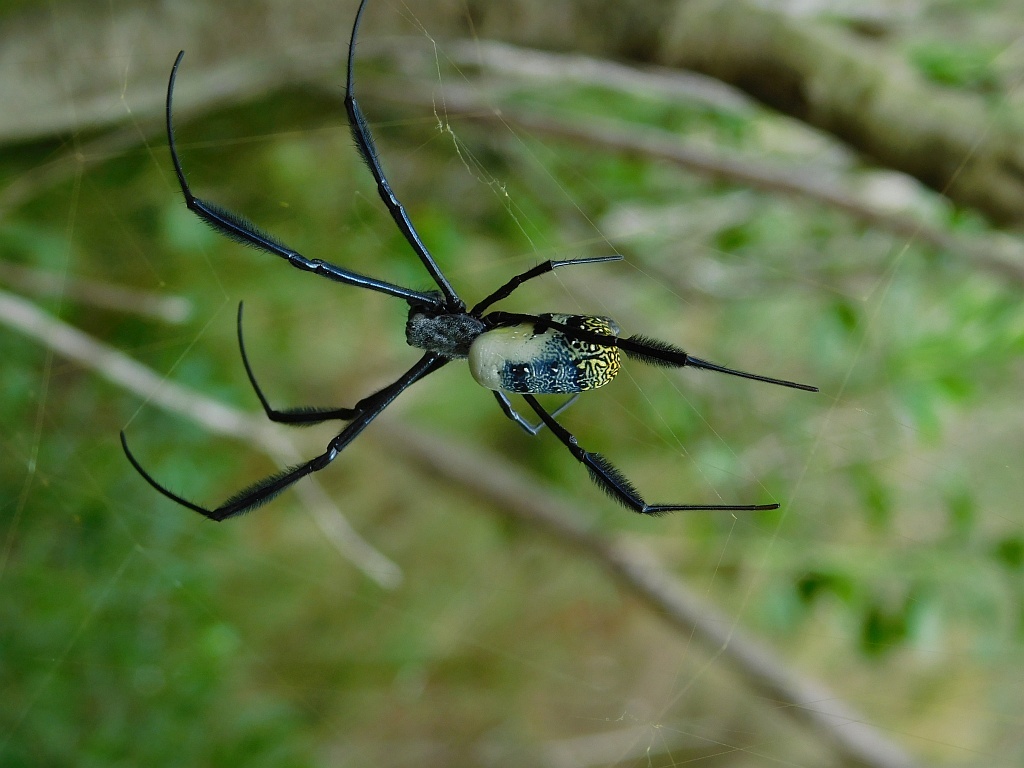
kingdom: Animalia
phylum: Arthropoda
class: Arachnida
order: Araneae
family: Araneidae
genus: Trichonephila
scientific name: Trichonephila fenestrata
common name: Hairy golden orb weaver
